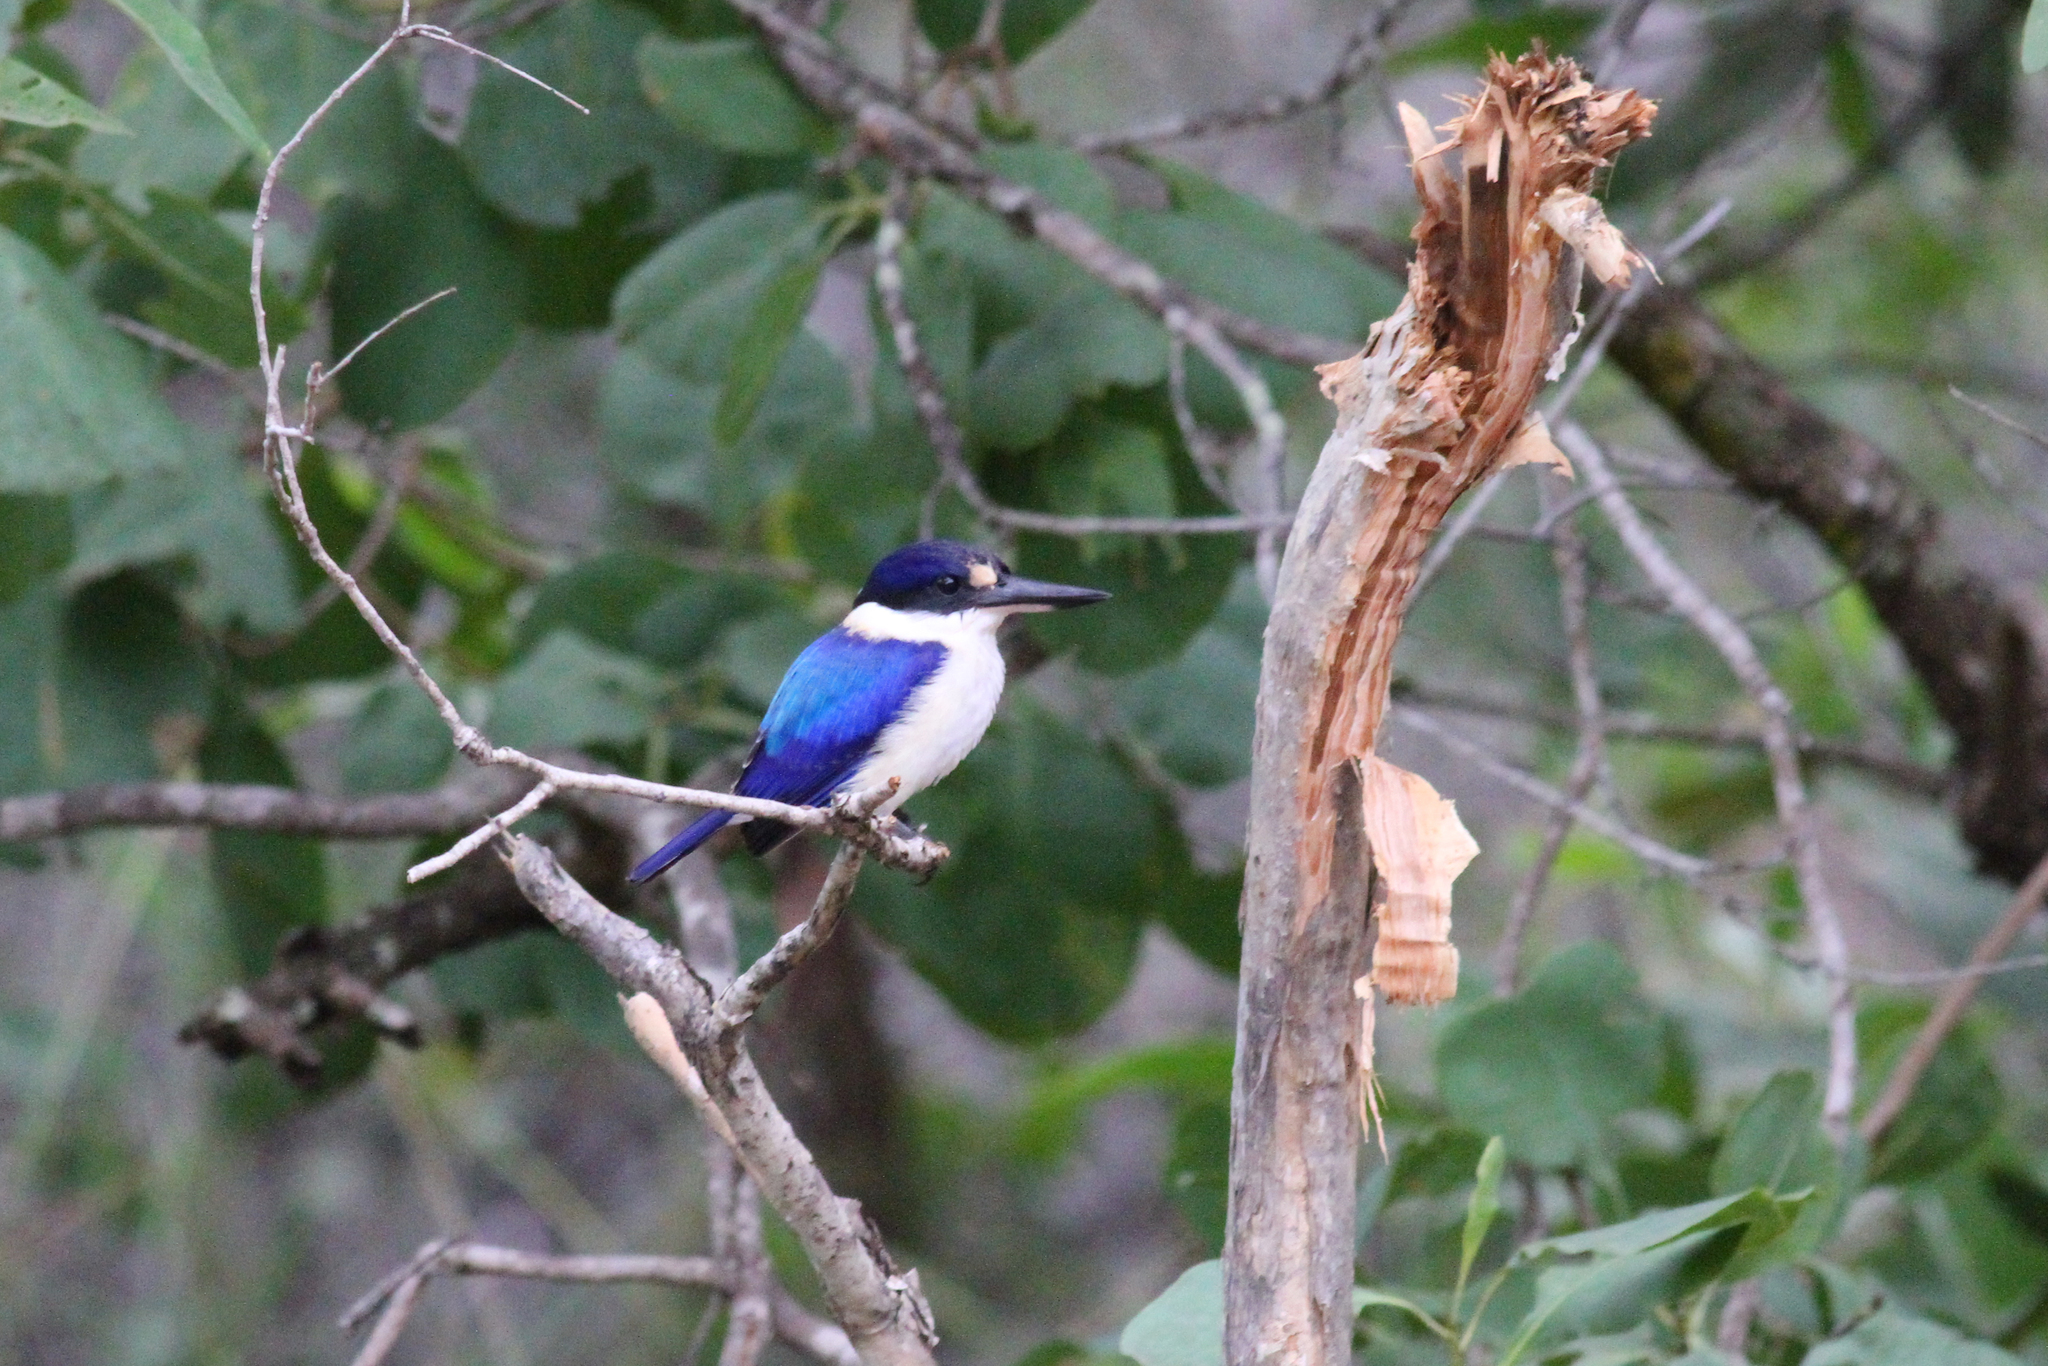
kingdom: Animalia
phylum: Chordata
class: Aves
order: Coraciiformes
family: Alcedinidae
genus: Todiramphus
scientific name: Todiramphus macleayii
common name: Forest kingfisher
